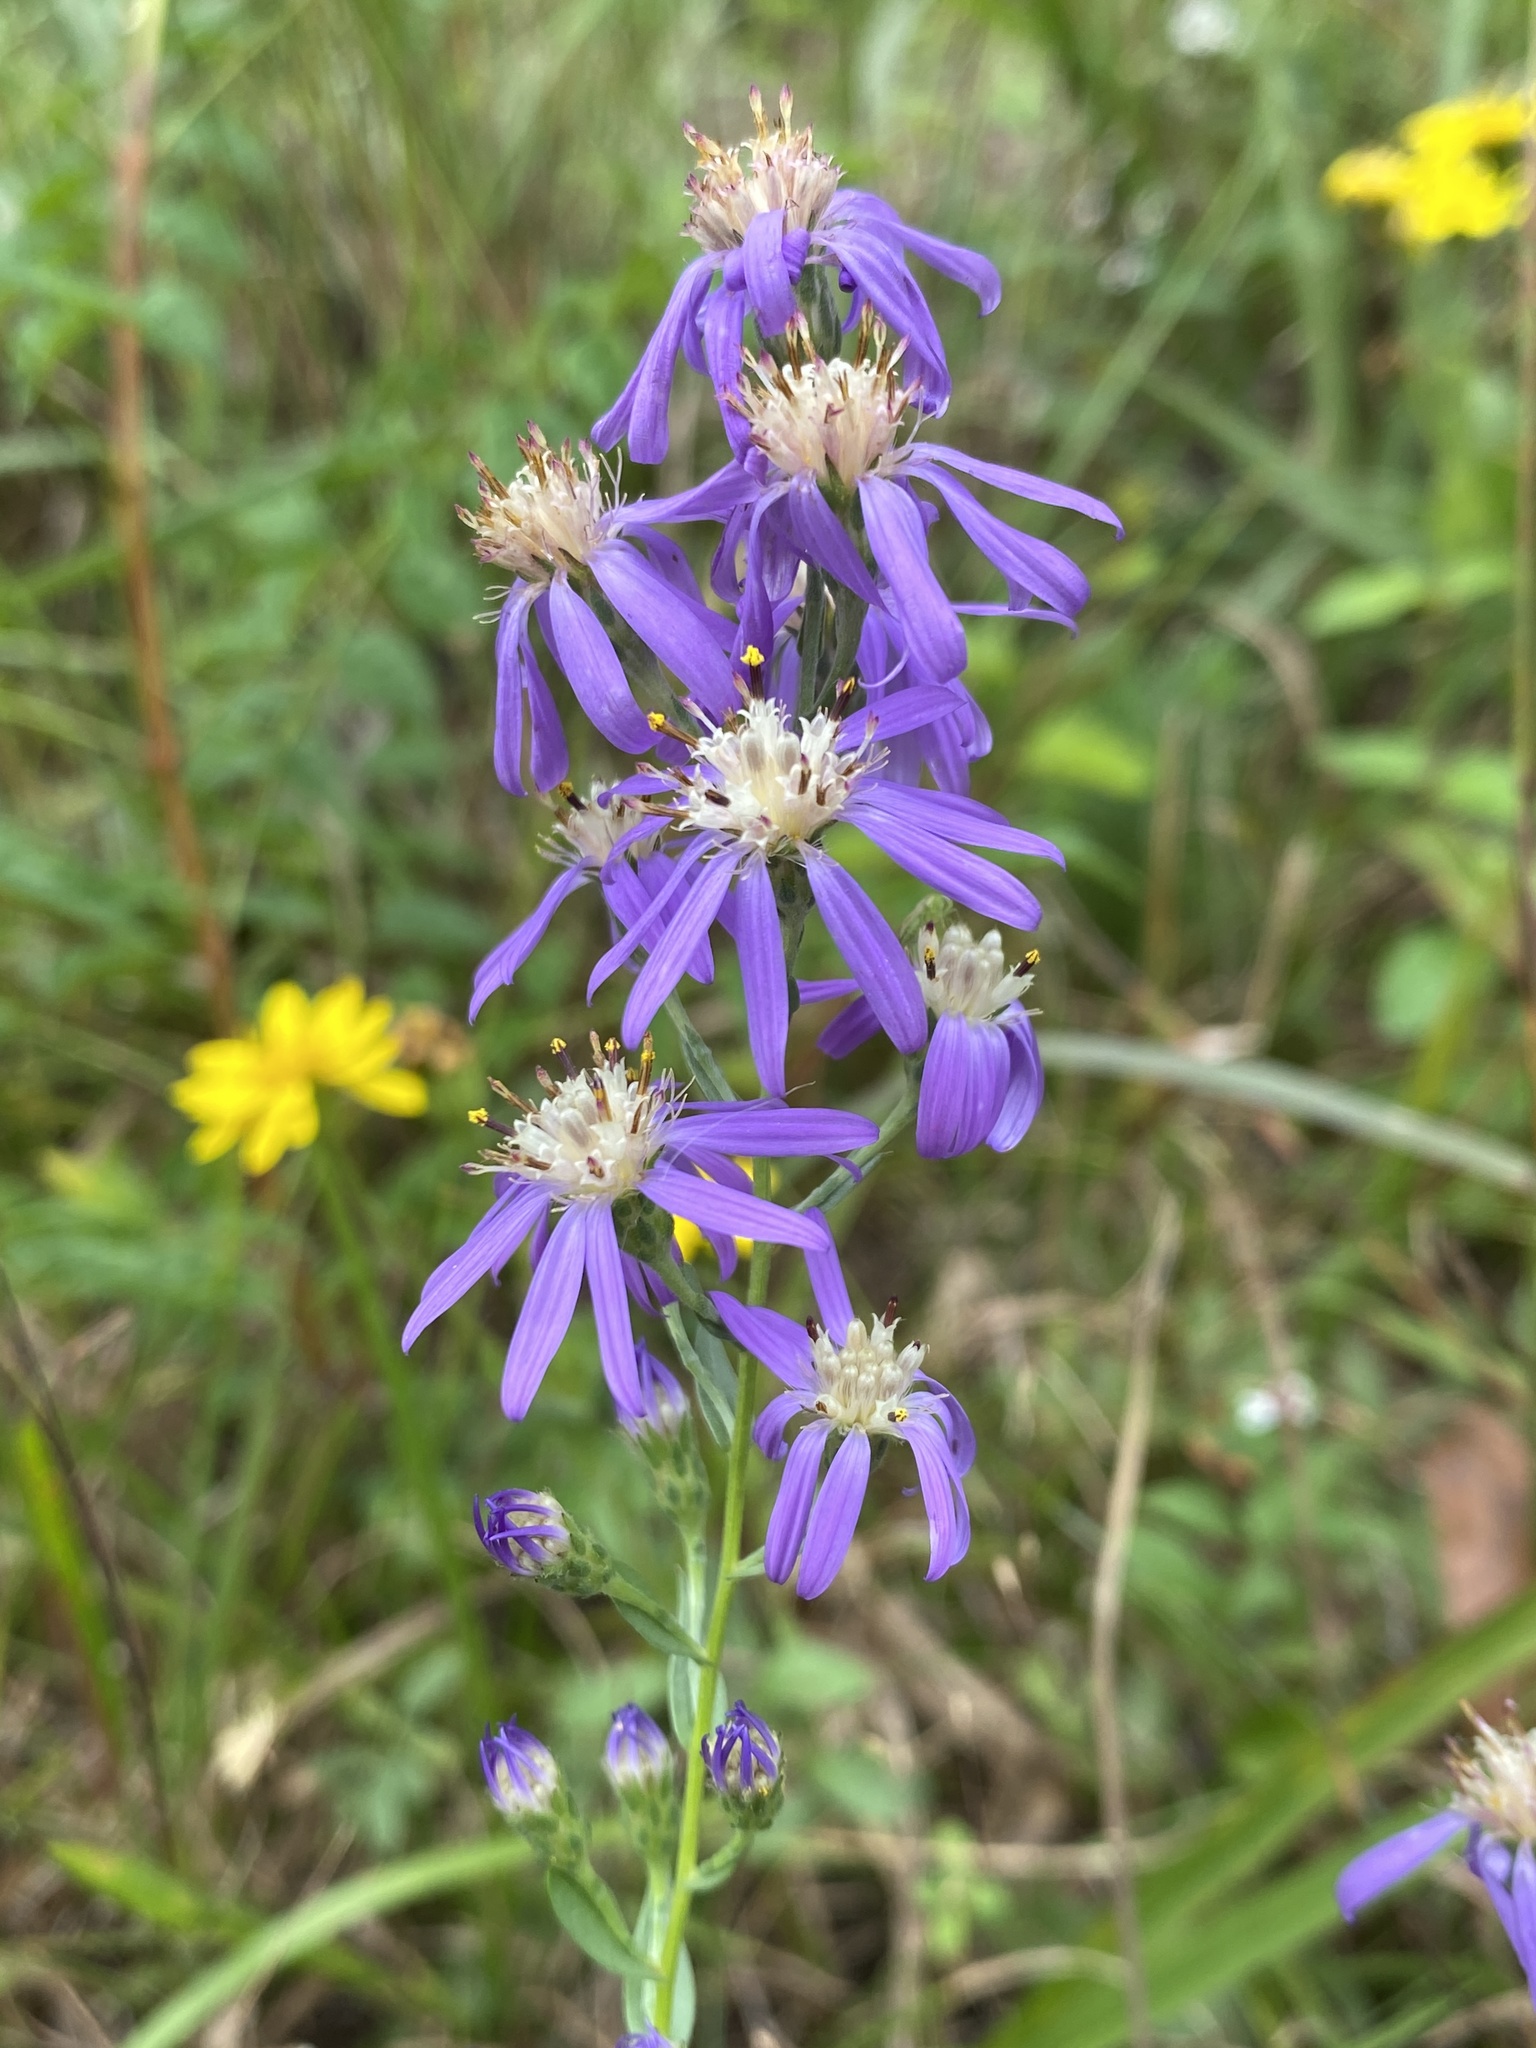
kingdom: Plantae
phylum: Tracheophyta
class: Magnoliopsida
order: Asterales
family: Asteraceae
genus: Symphyotrichum
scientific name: Symphyotrichum concolor
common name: Eastern silver aster
